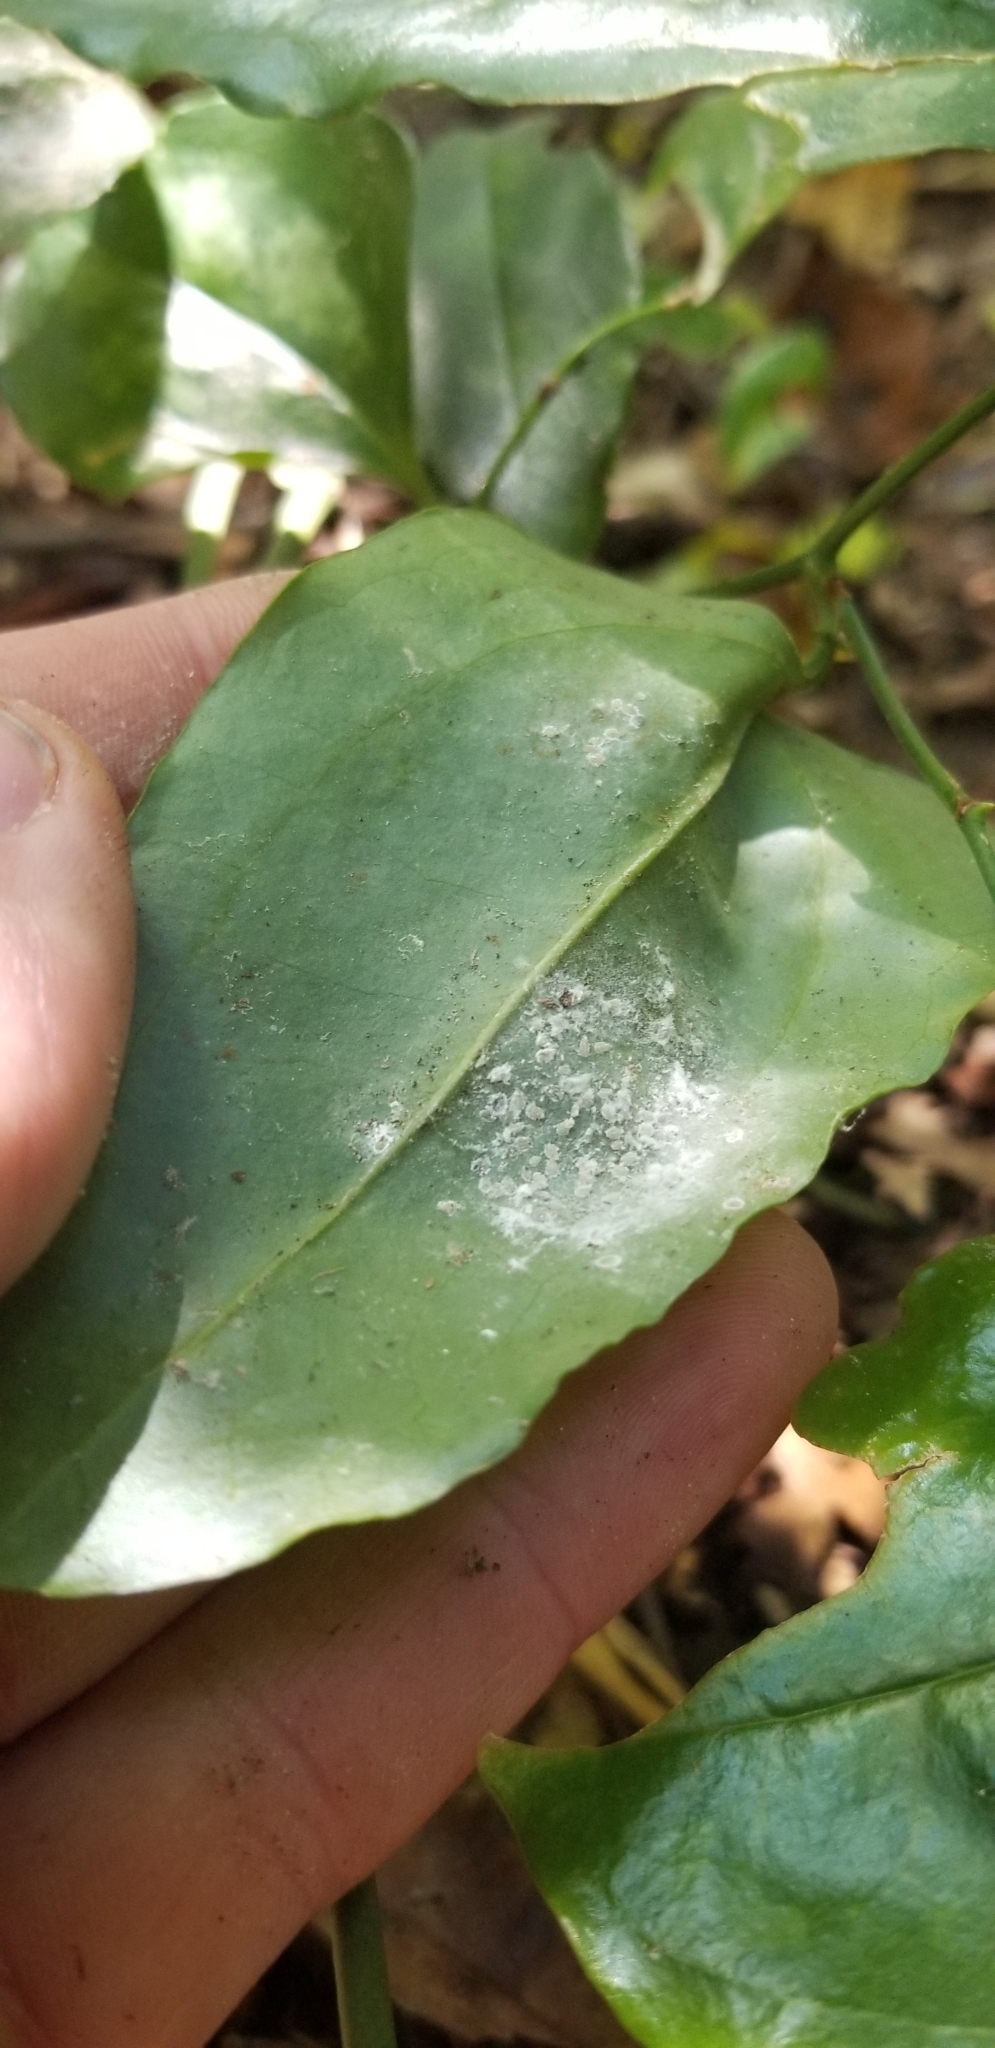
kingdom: Plantae
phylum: Tracheophyta
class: Liliopsida
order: Liliales
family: Smilacaceae
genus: Smilax
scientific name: Smilax maritima
